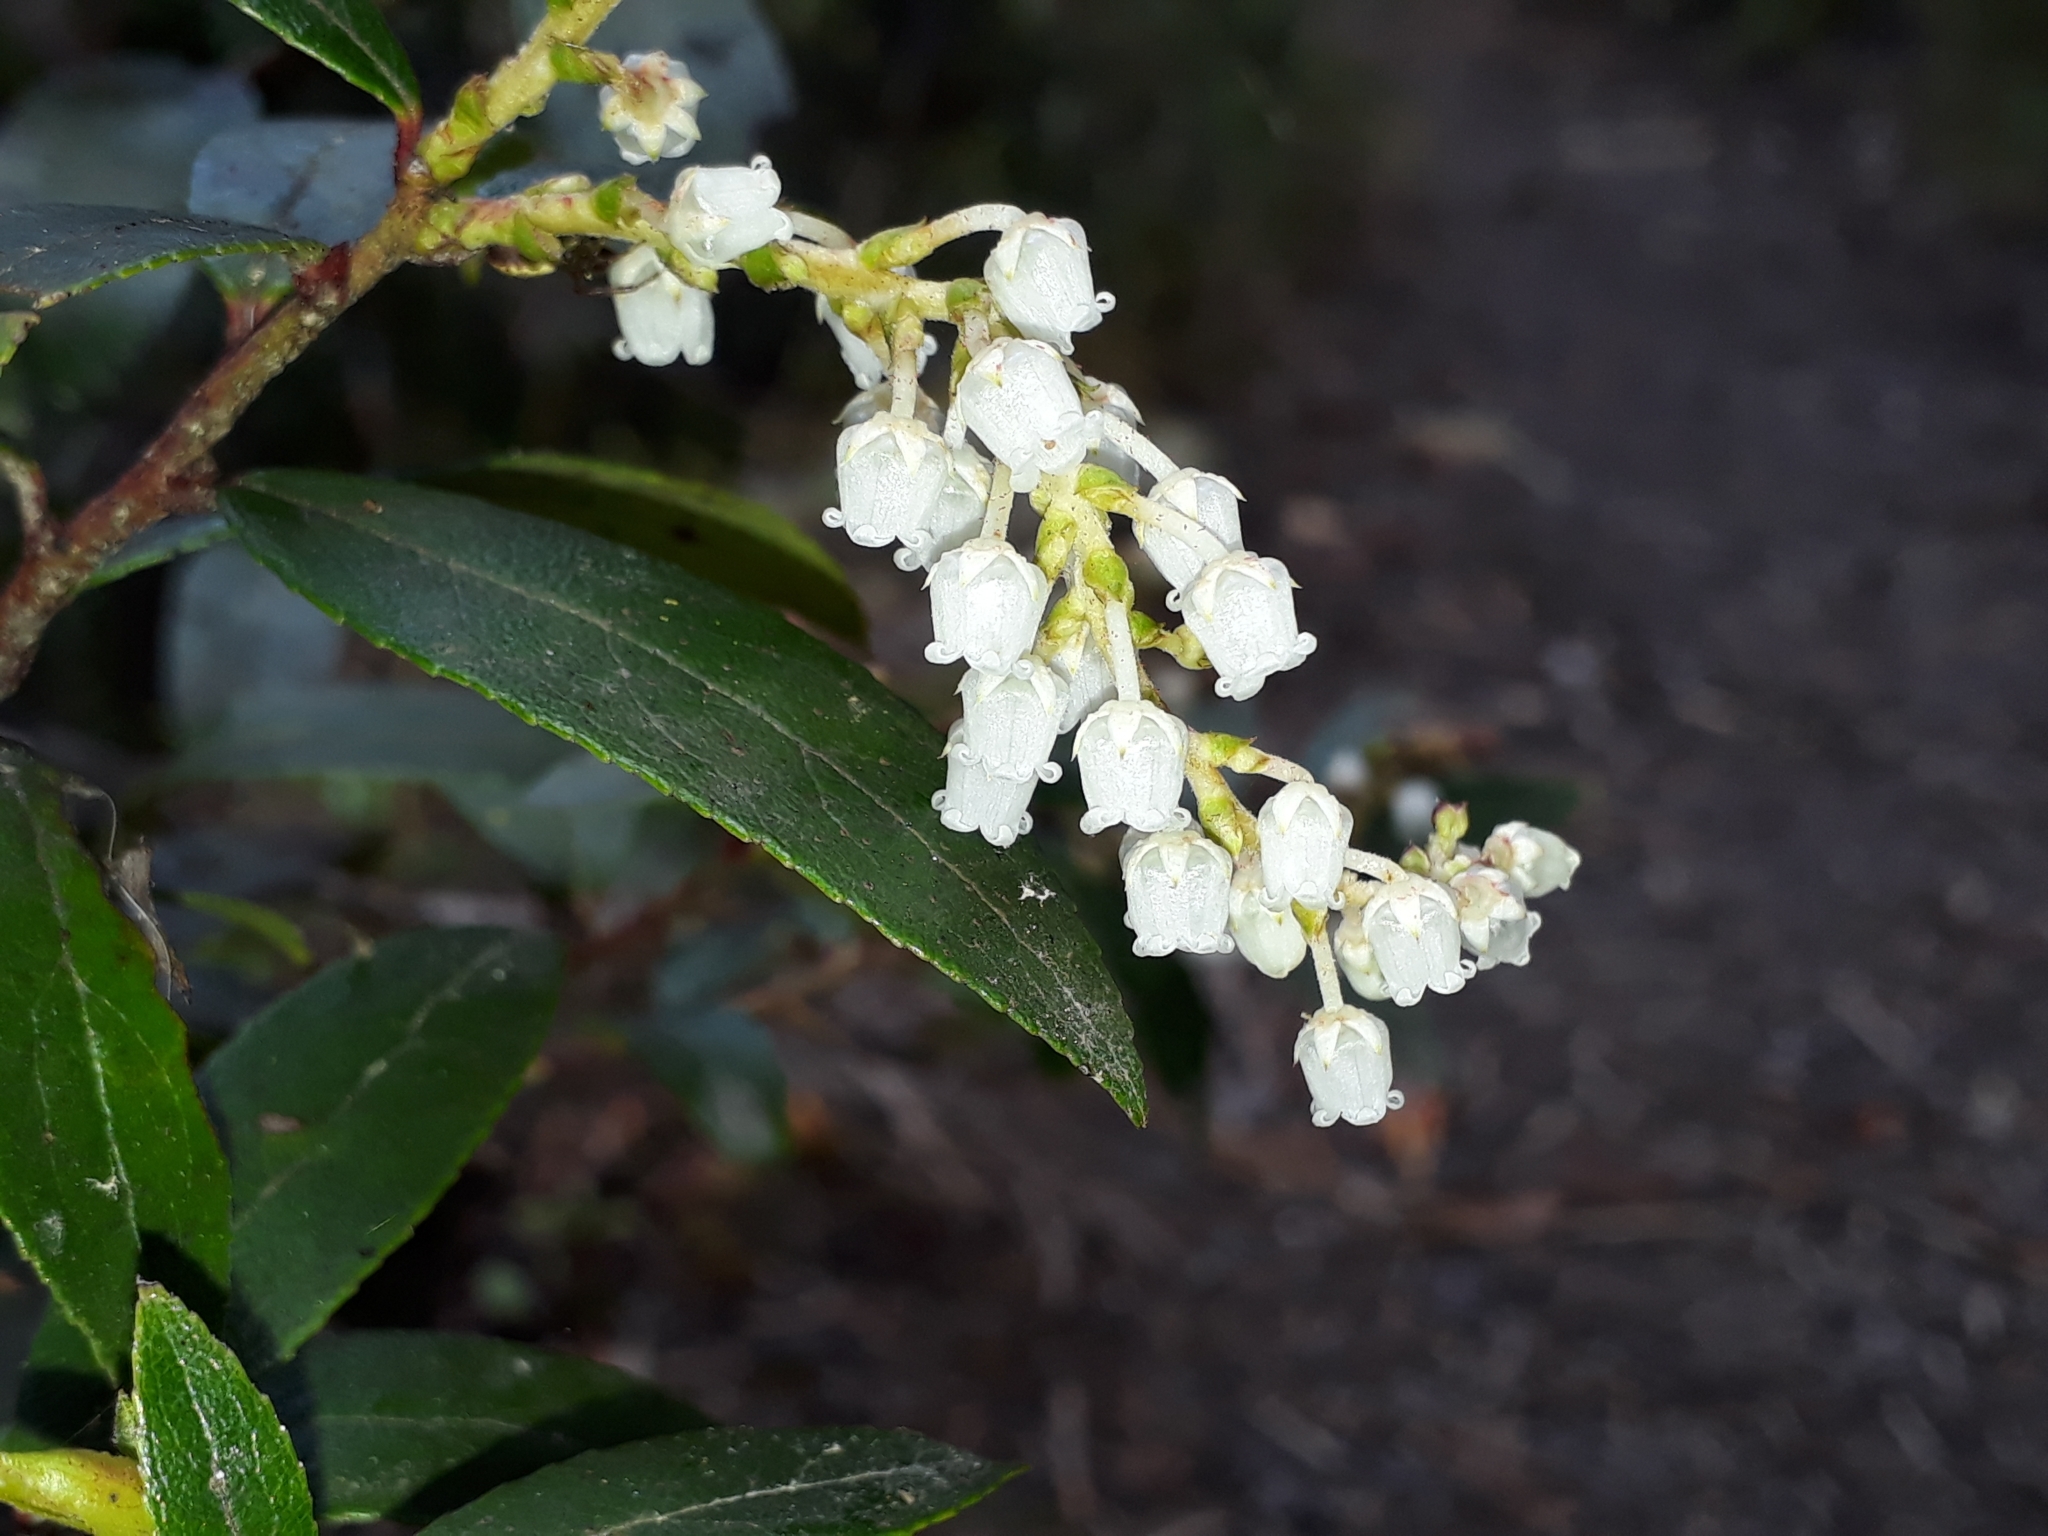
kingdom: Plantae
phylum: Tracheophyta
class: Magnoliopsida
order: Ericales
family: Ericaceae
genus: Gaultheria
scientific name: Gaultheria paniculata
